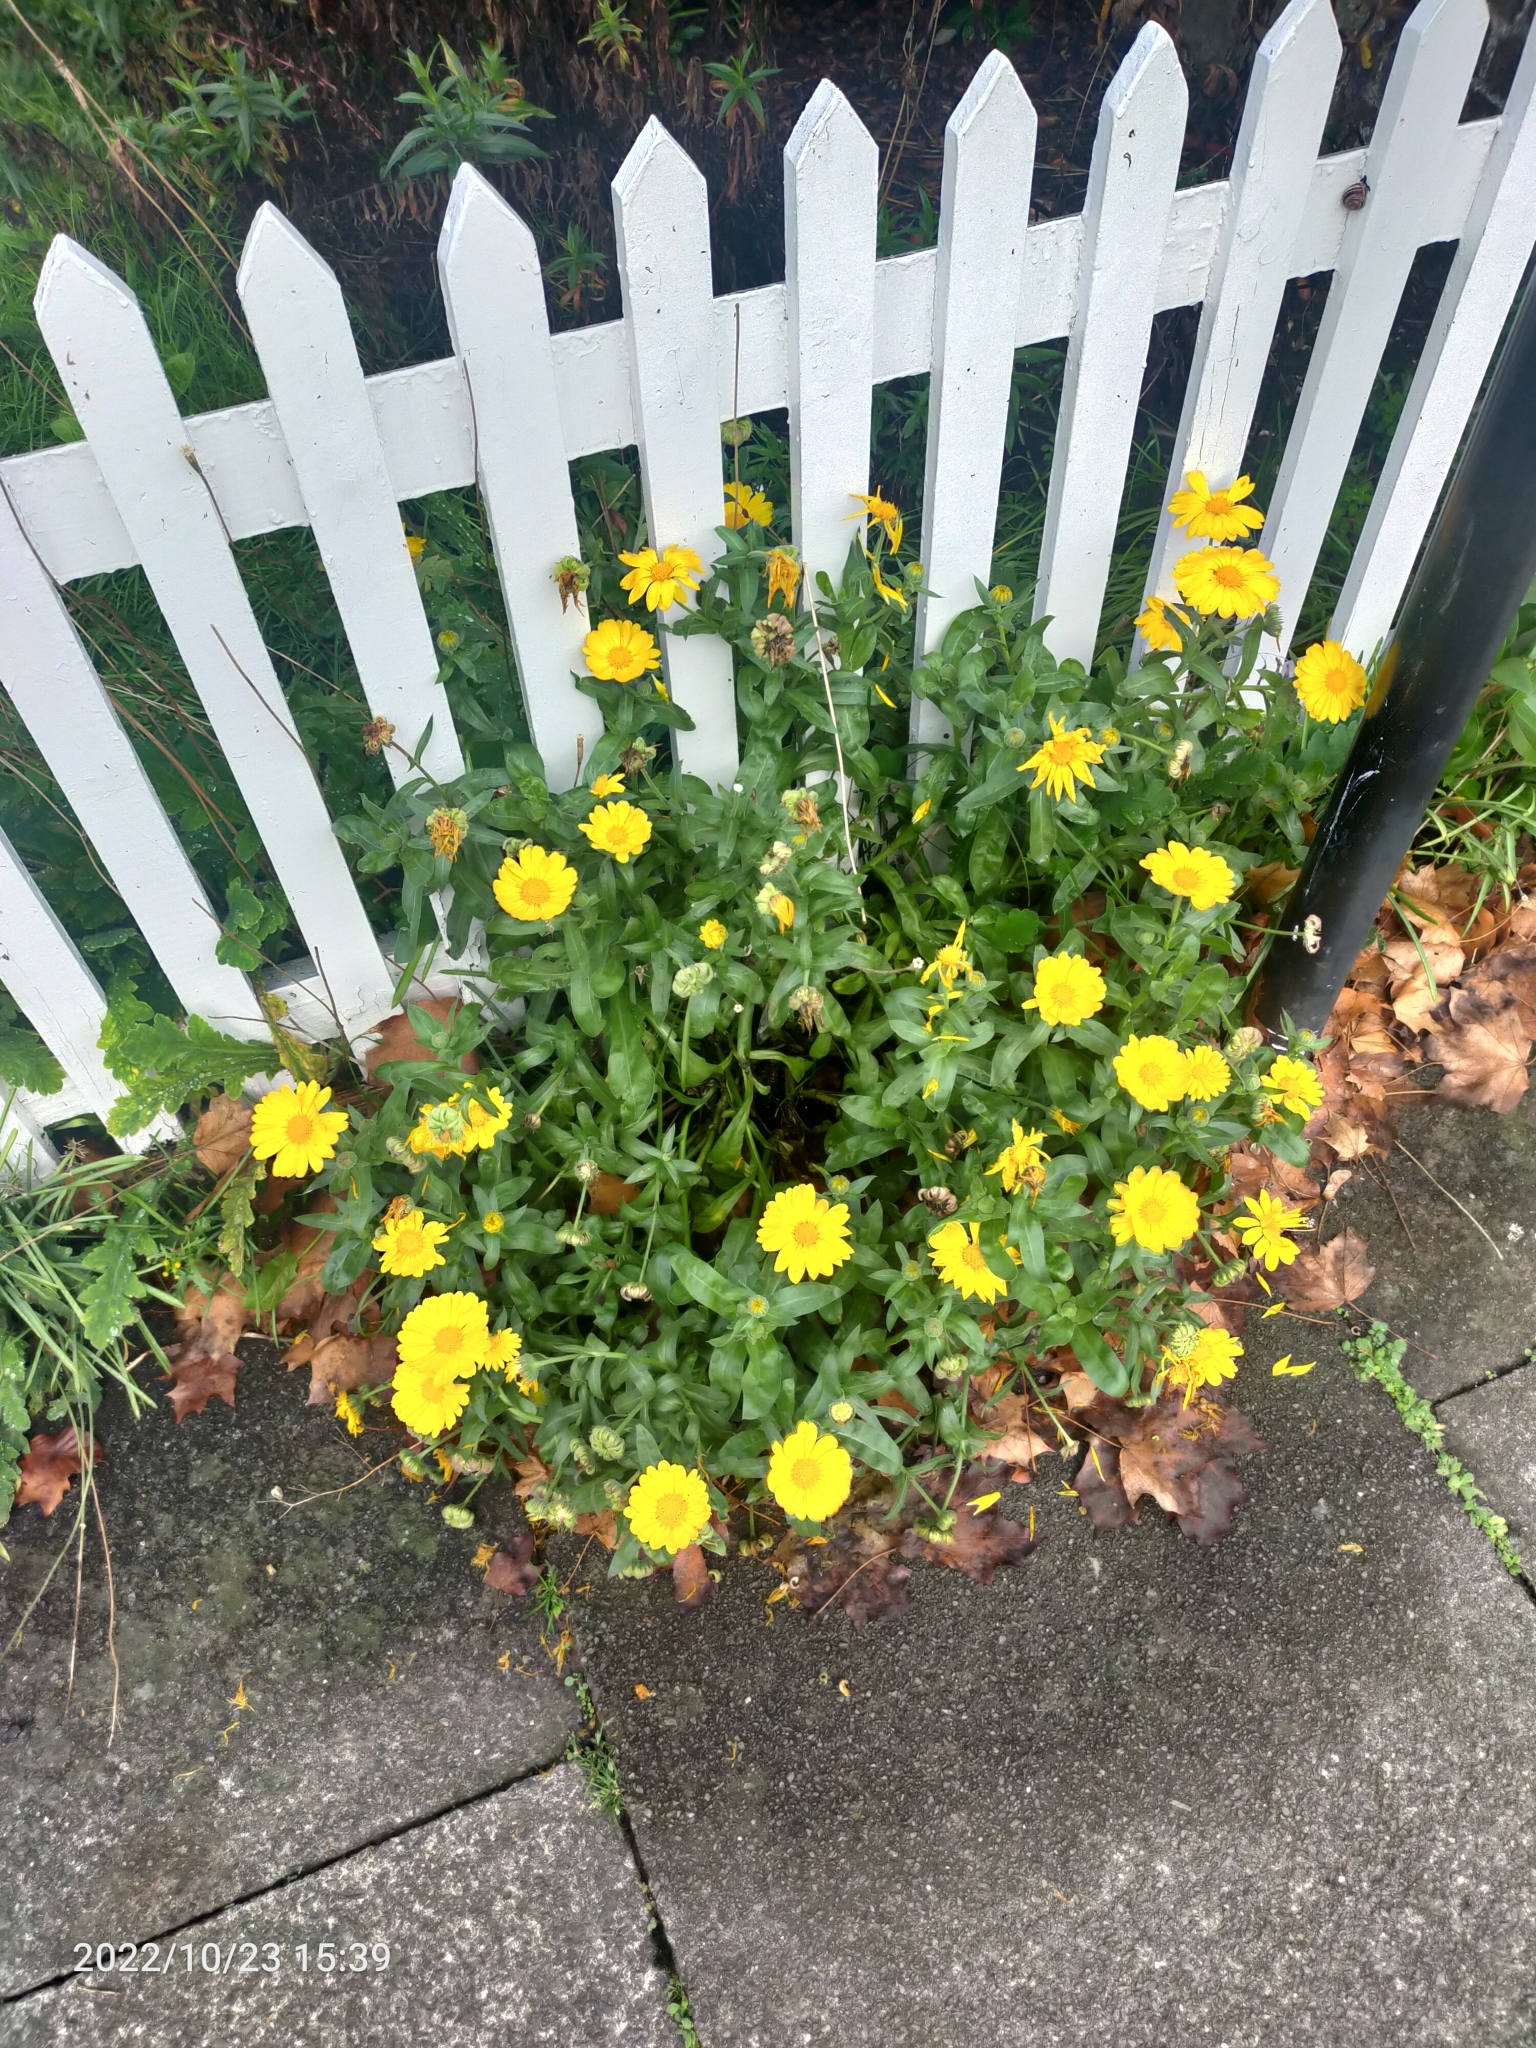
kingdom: Plantae
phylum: Tracheophyta
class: Magnoliopsida
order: Asterales
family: Asteraceae
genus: Calendula
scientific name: Calendula
